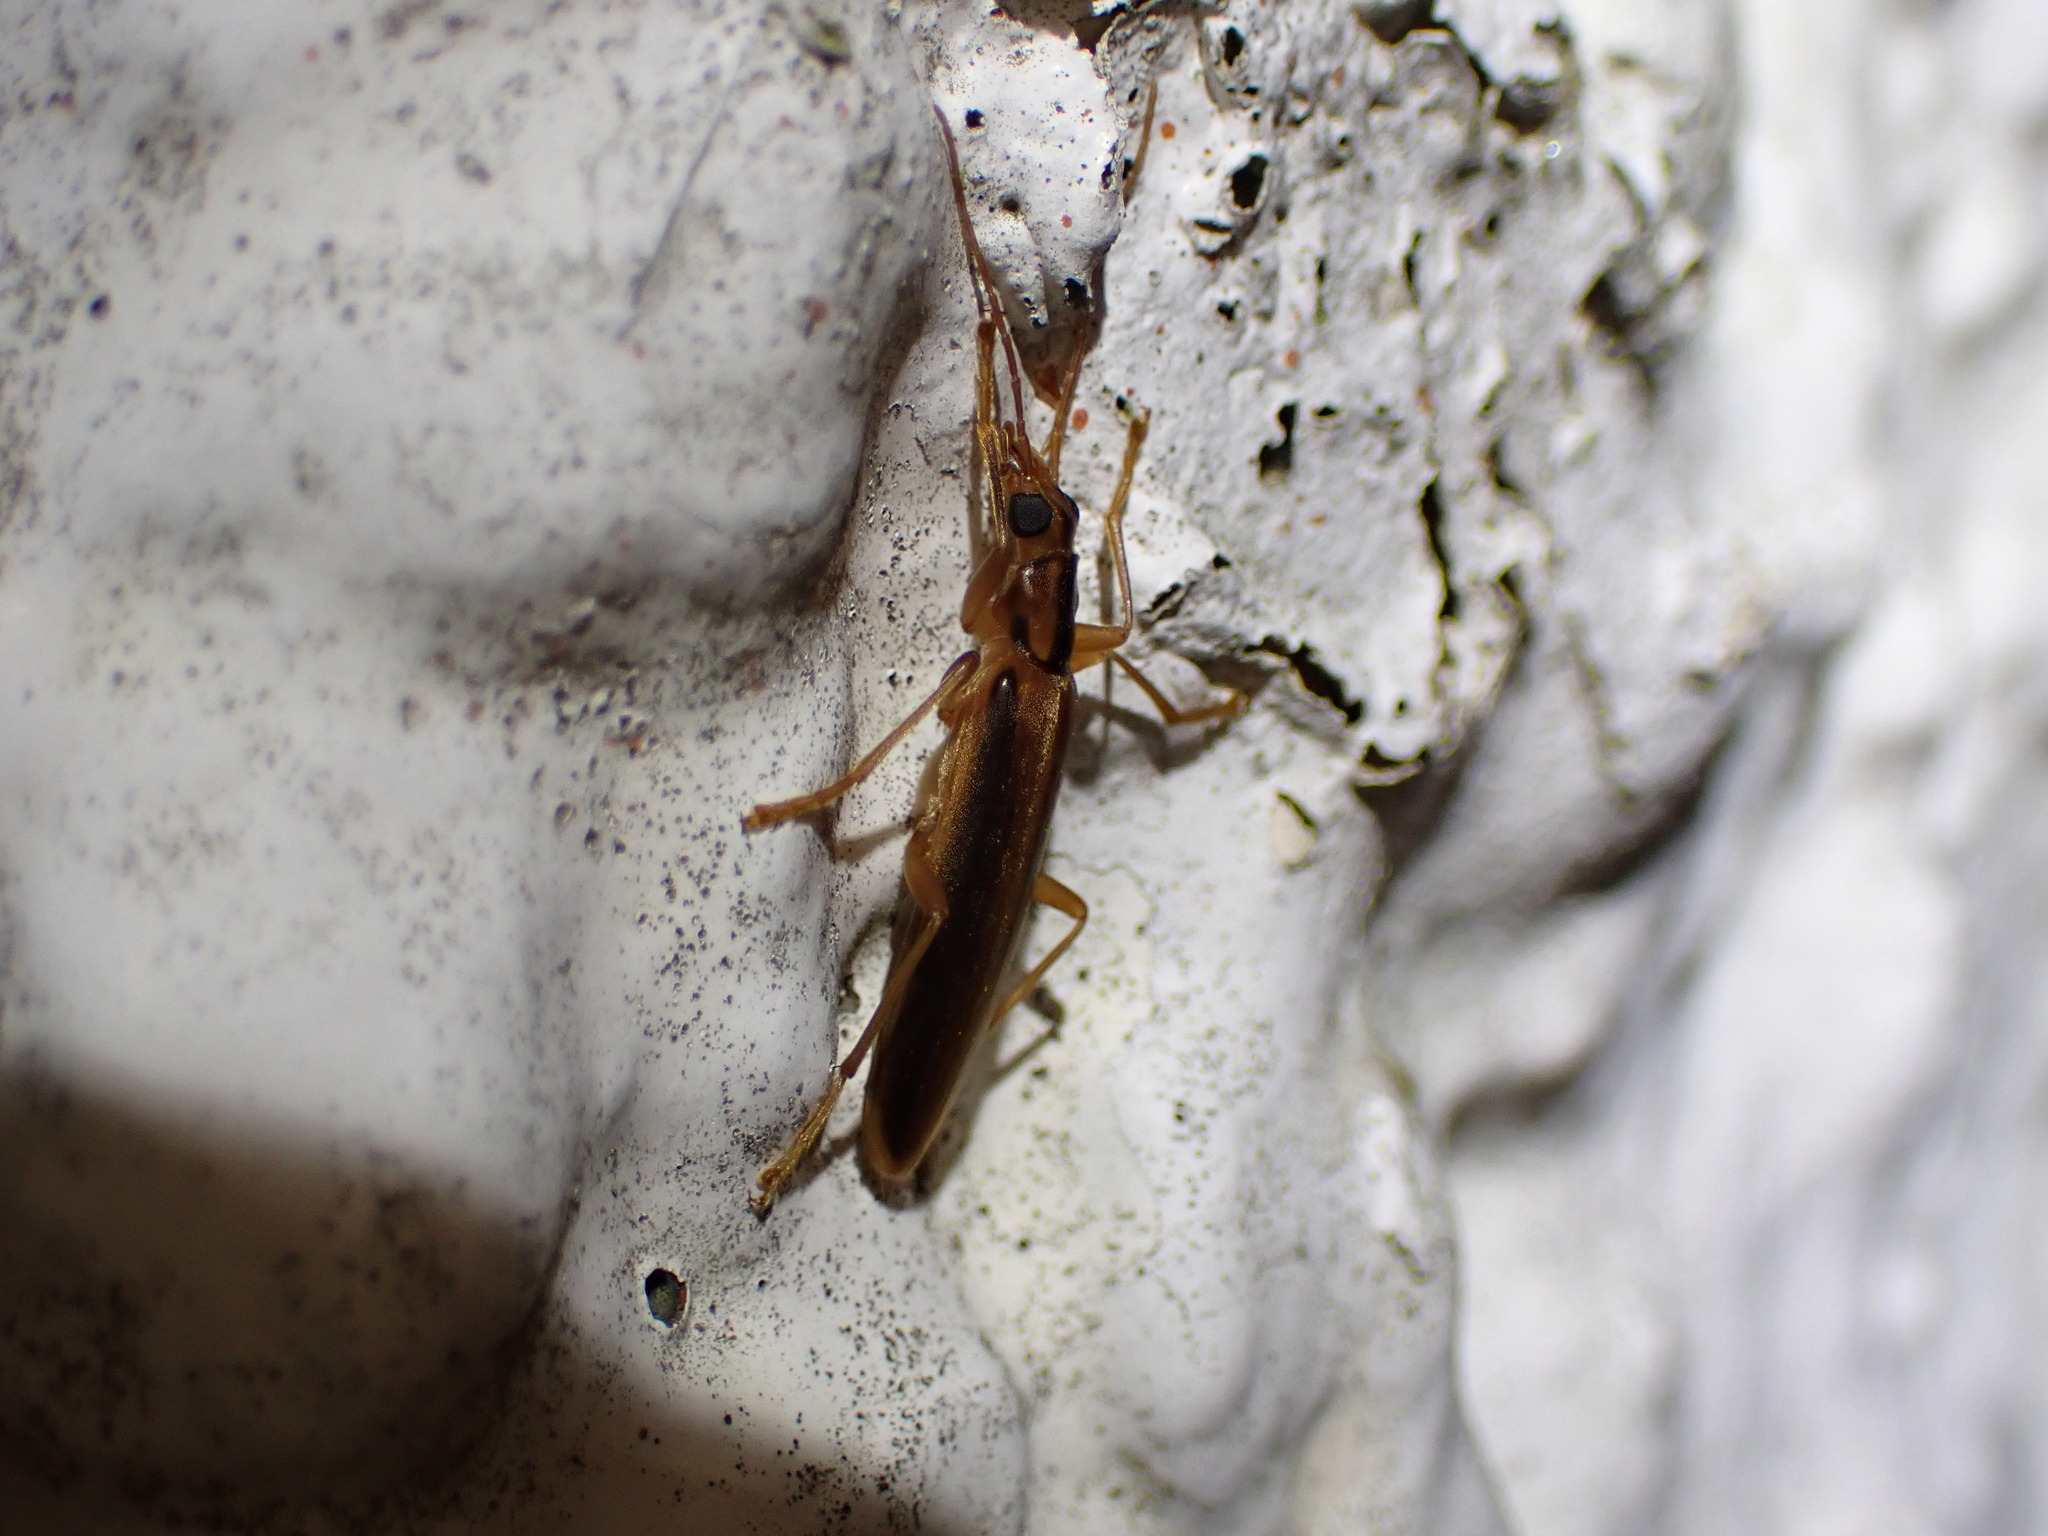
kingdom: Animalia
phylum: Arthropoda
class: Insecta
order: Coleoptera
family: Oedemeridae
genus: Thelyphassa
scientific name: Thelyphassa
